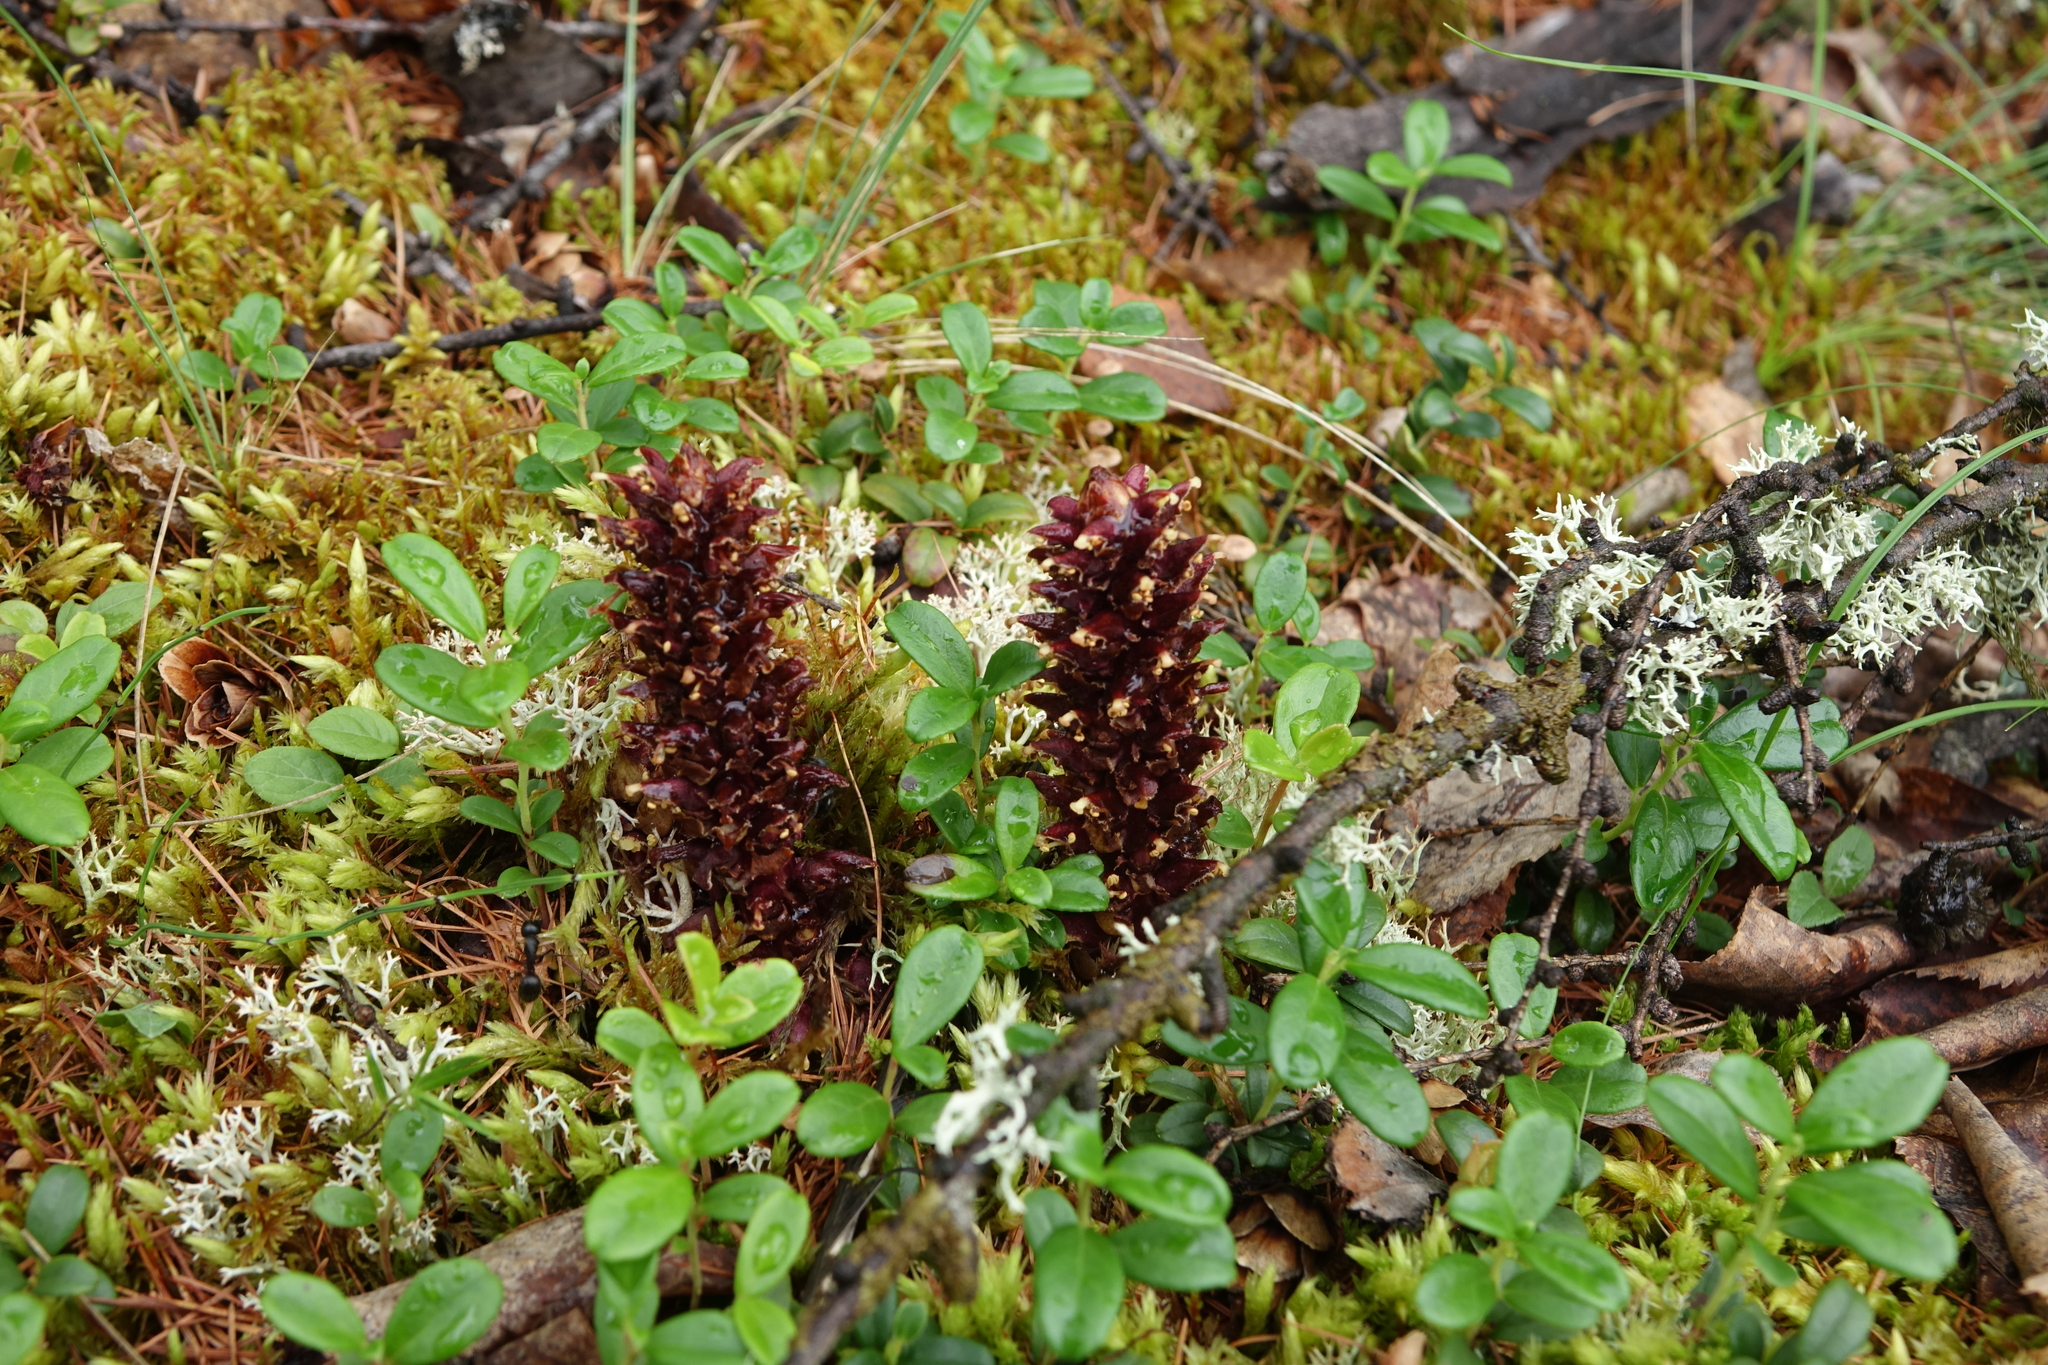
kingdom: Plantae
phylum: Tracheophyta
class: Magnoliopsida
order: Lamiales
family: Orobanchaceae
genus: Boschniakia
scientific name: Boschniakia rossica
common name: Poque
